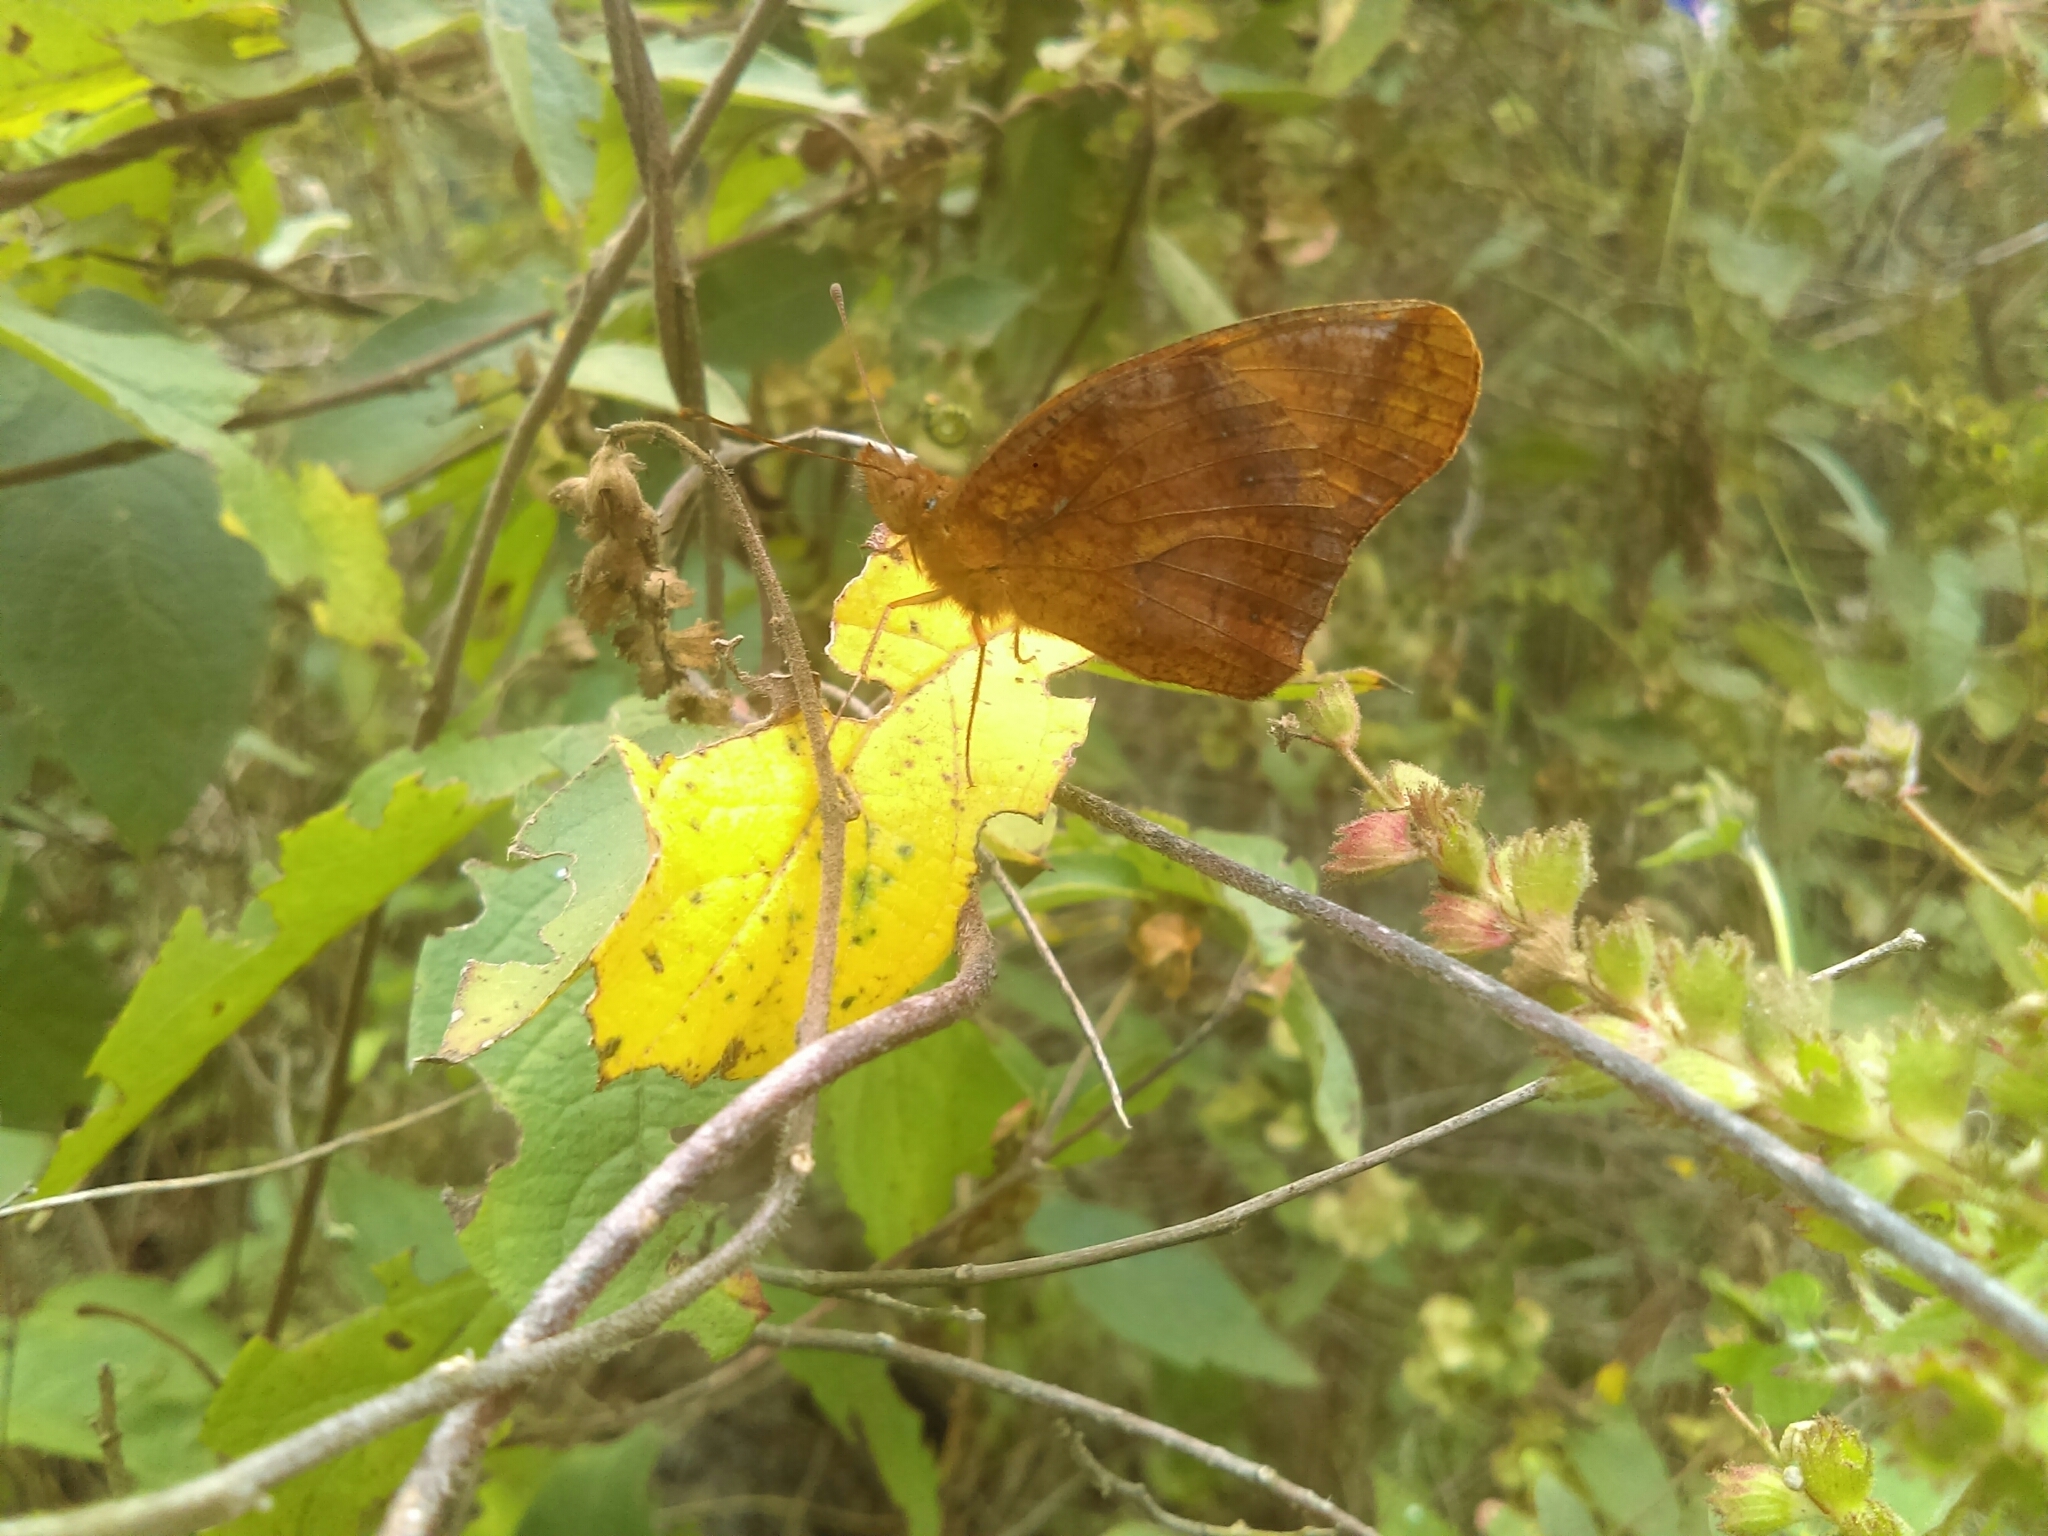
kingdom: Animalia
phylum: Arthropoda
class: Insecta
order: Lepidoptera
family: Nymphalidae
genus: Euptoieta
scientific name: Euptoieta hegesia
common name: Mexican fritillary
